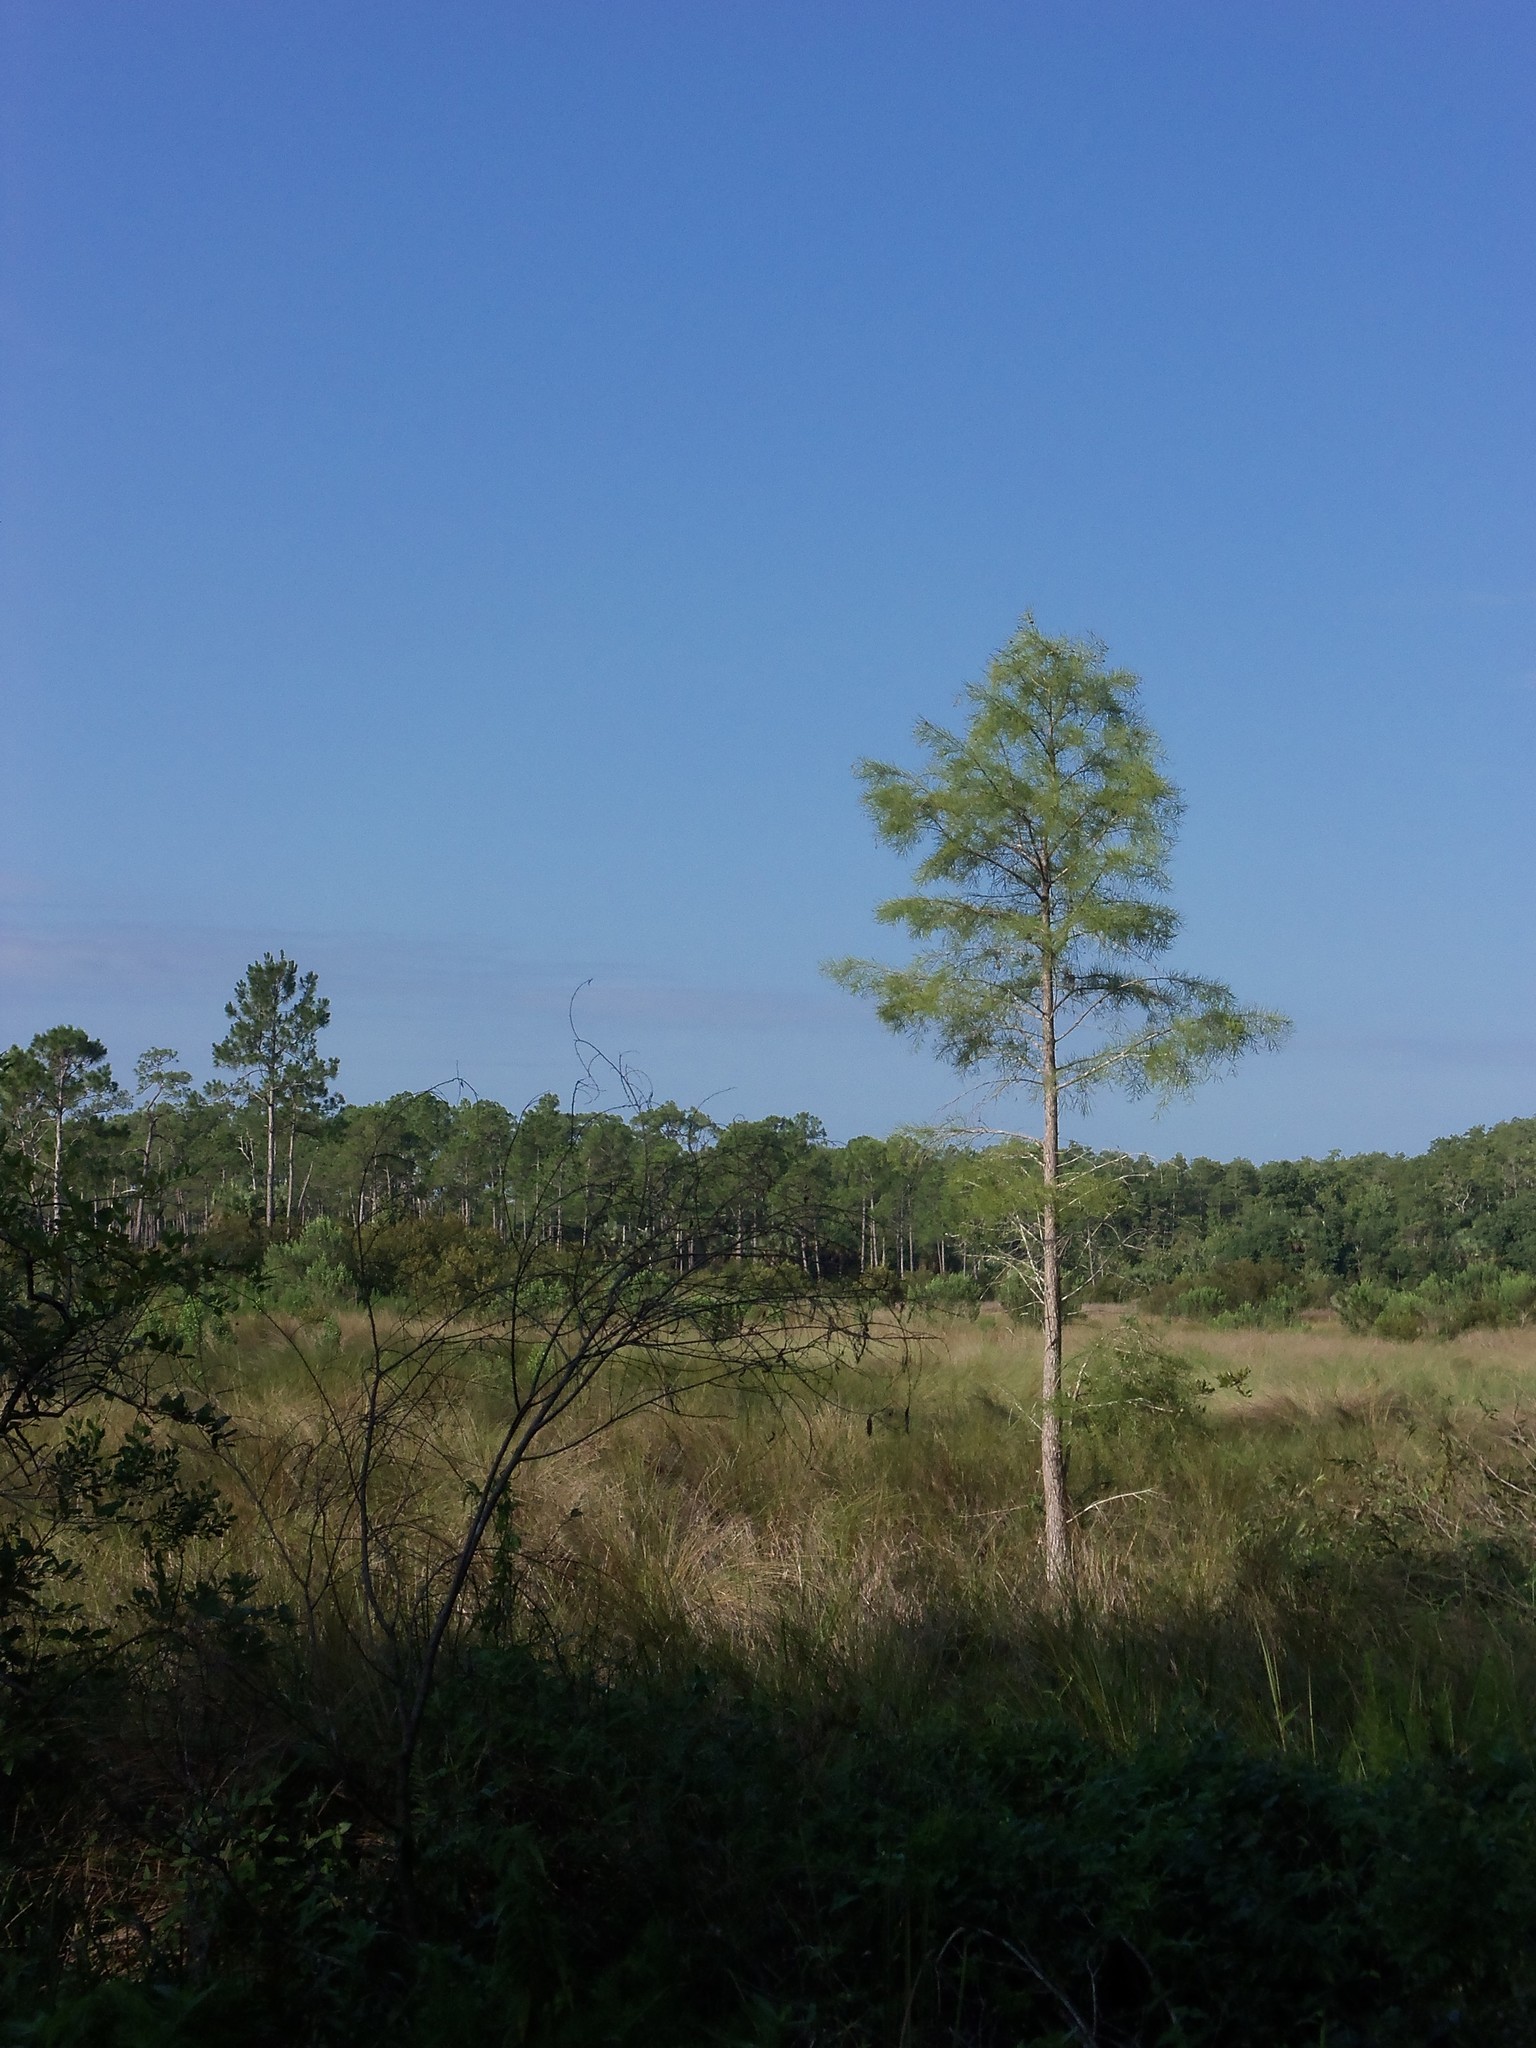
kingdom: Plantae
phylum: Tracheophyta
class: Pinopsida
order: Pinales
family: Cupressaceae
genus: Taxodium
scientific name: Taxodium distichum
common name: Bald cypress
